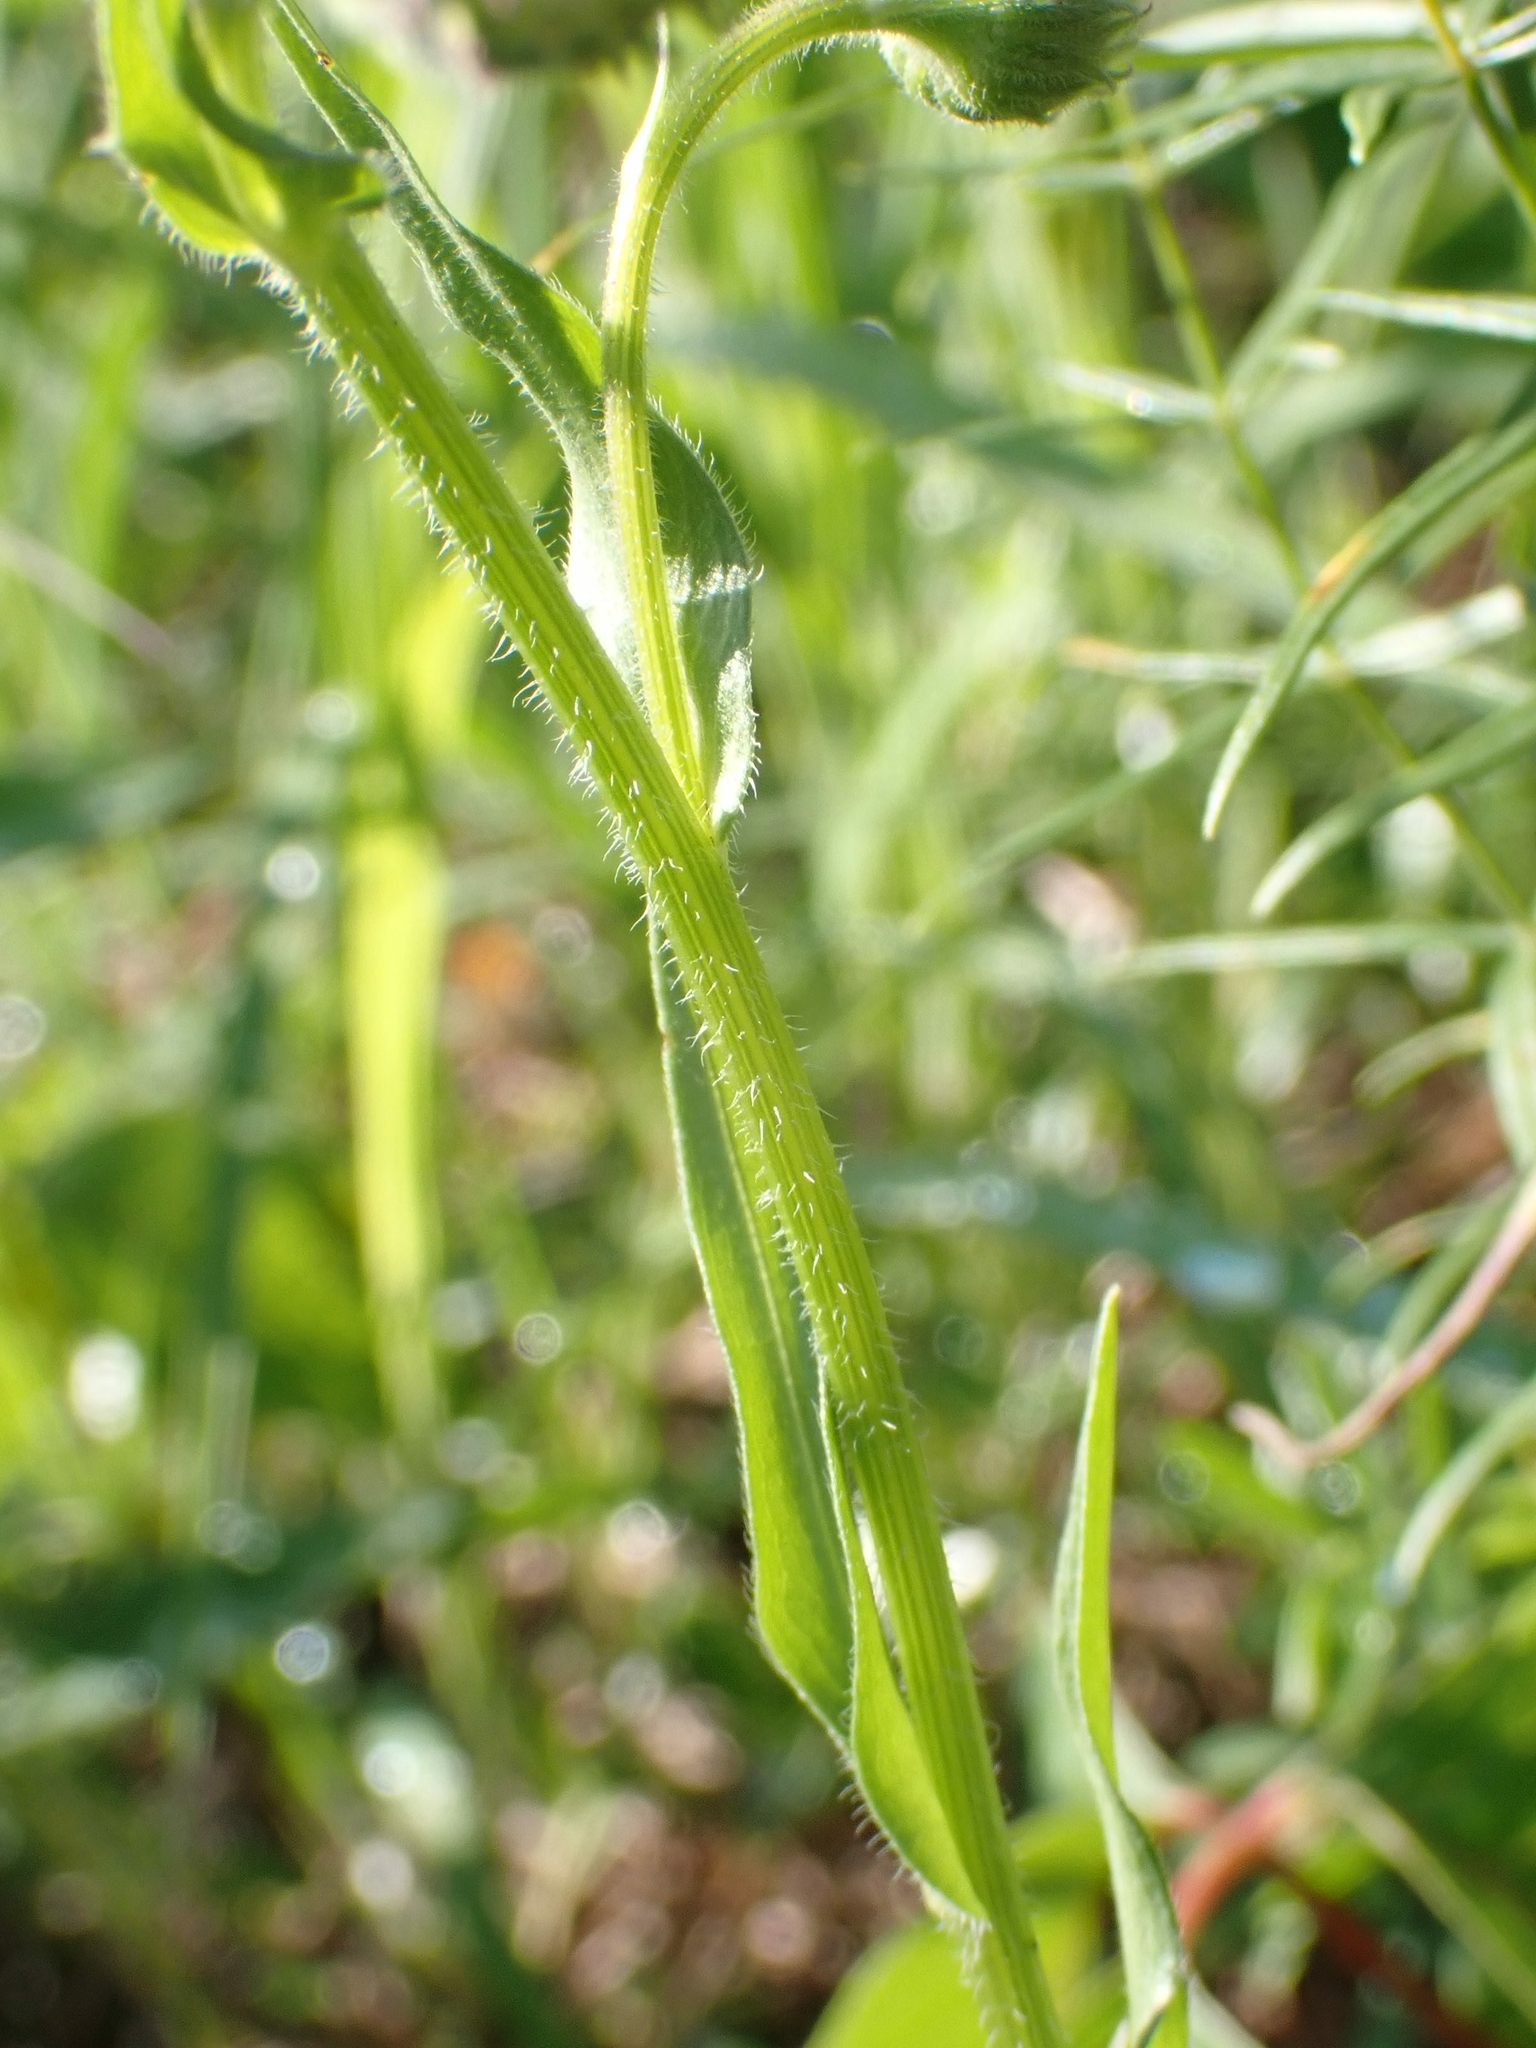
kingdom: Plantae
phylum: Tracheophyta
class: Magnoliopsida
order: Asterales
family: Asteraceae
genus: Erigeron
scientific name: Erigeron strigosus
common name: Common eastern fleabane
